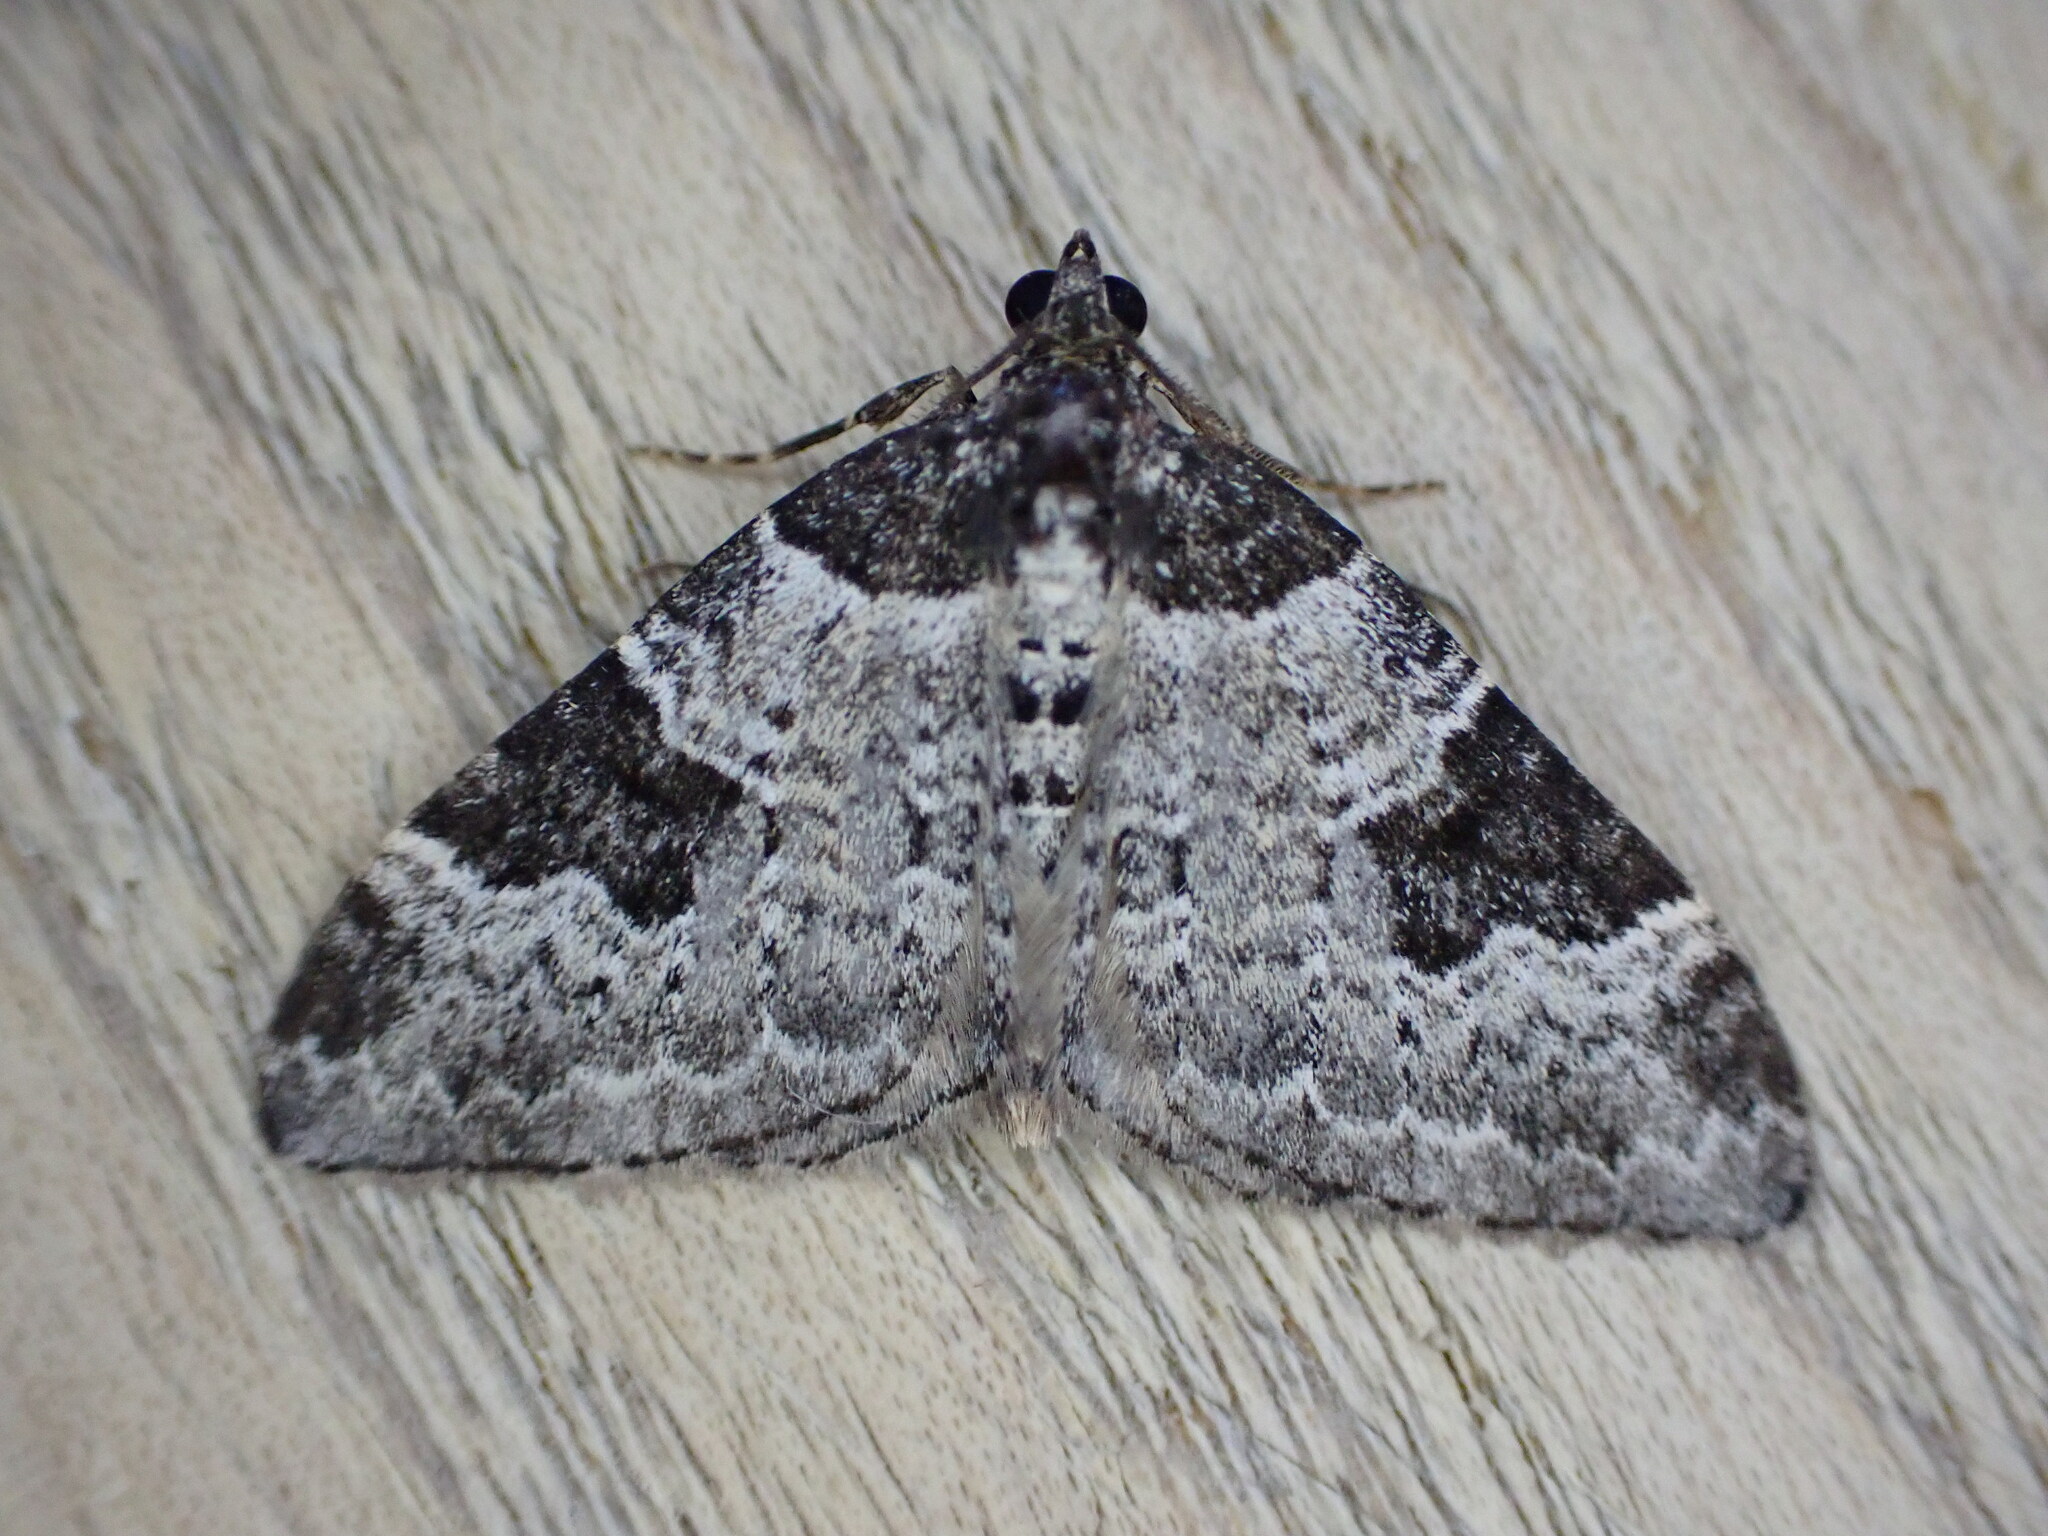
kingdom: Animalia
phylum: Arthropoda
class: Insecta
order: Lepidoptera
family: Geometridae
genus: Xanthorhoe
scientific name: Xanthorhoe fluctuata
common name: Garden carpet
